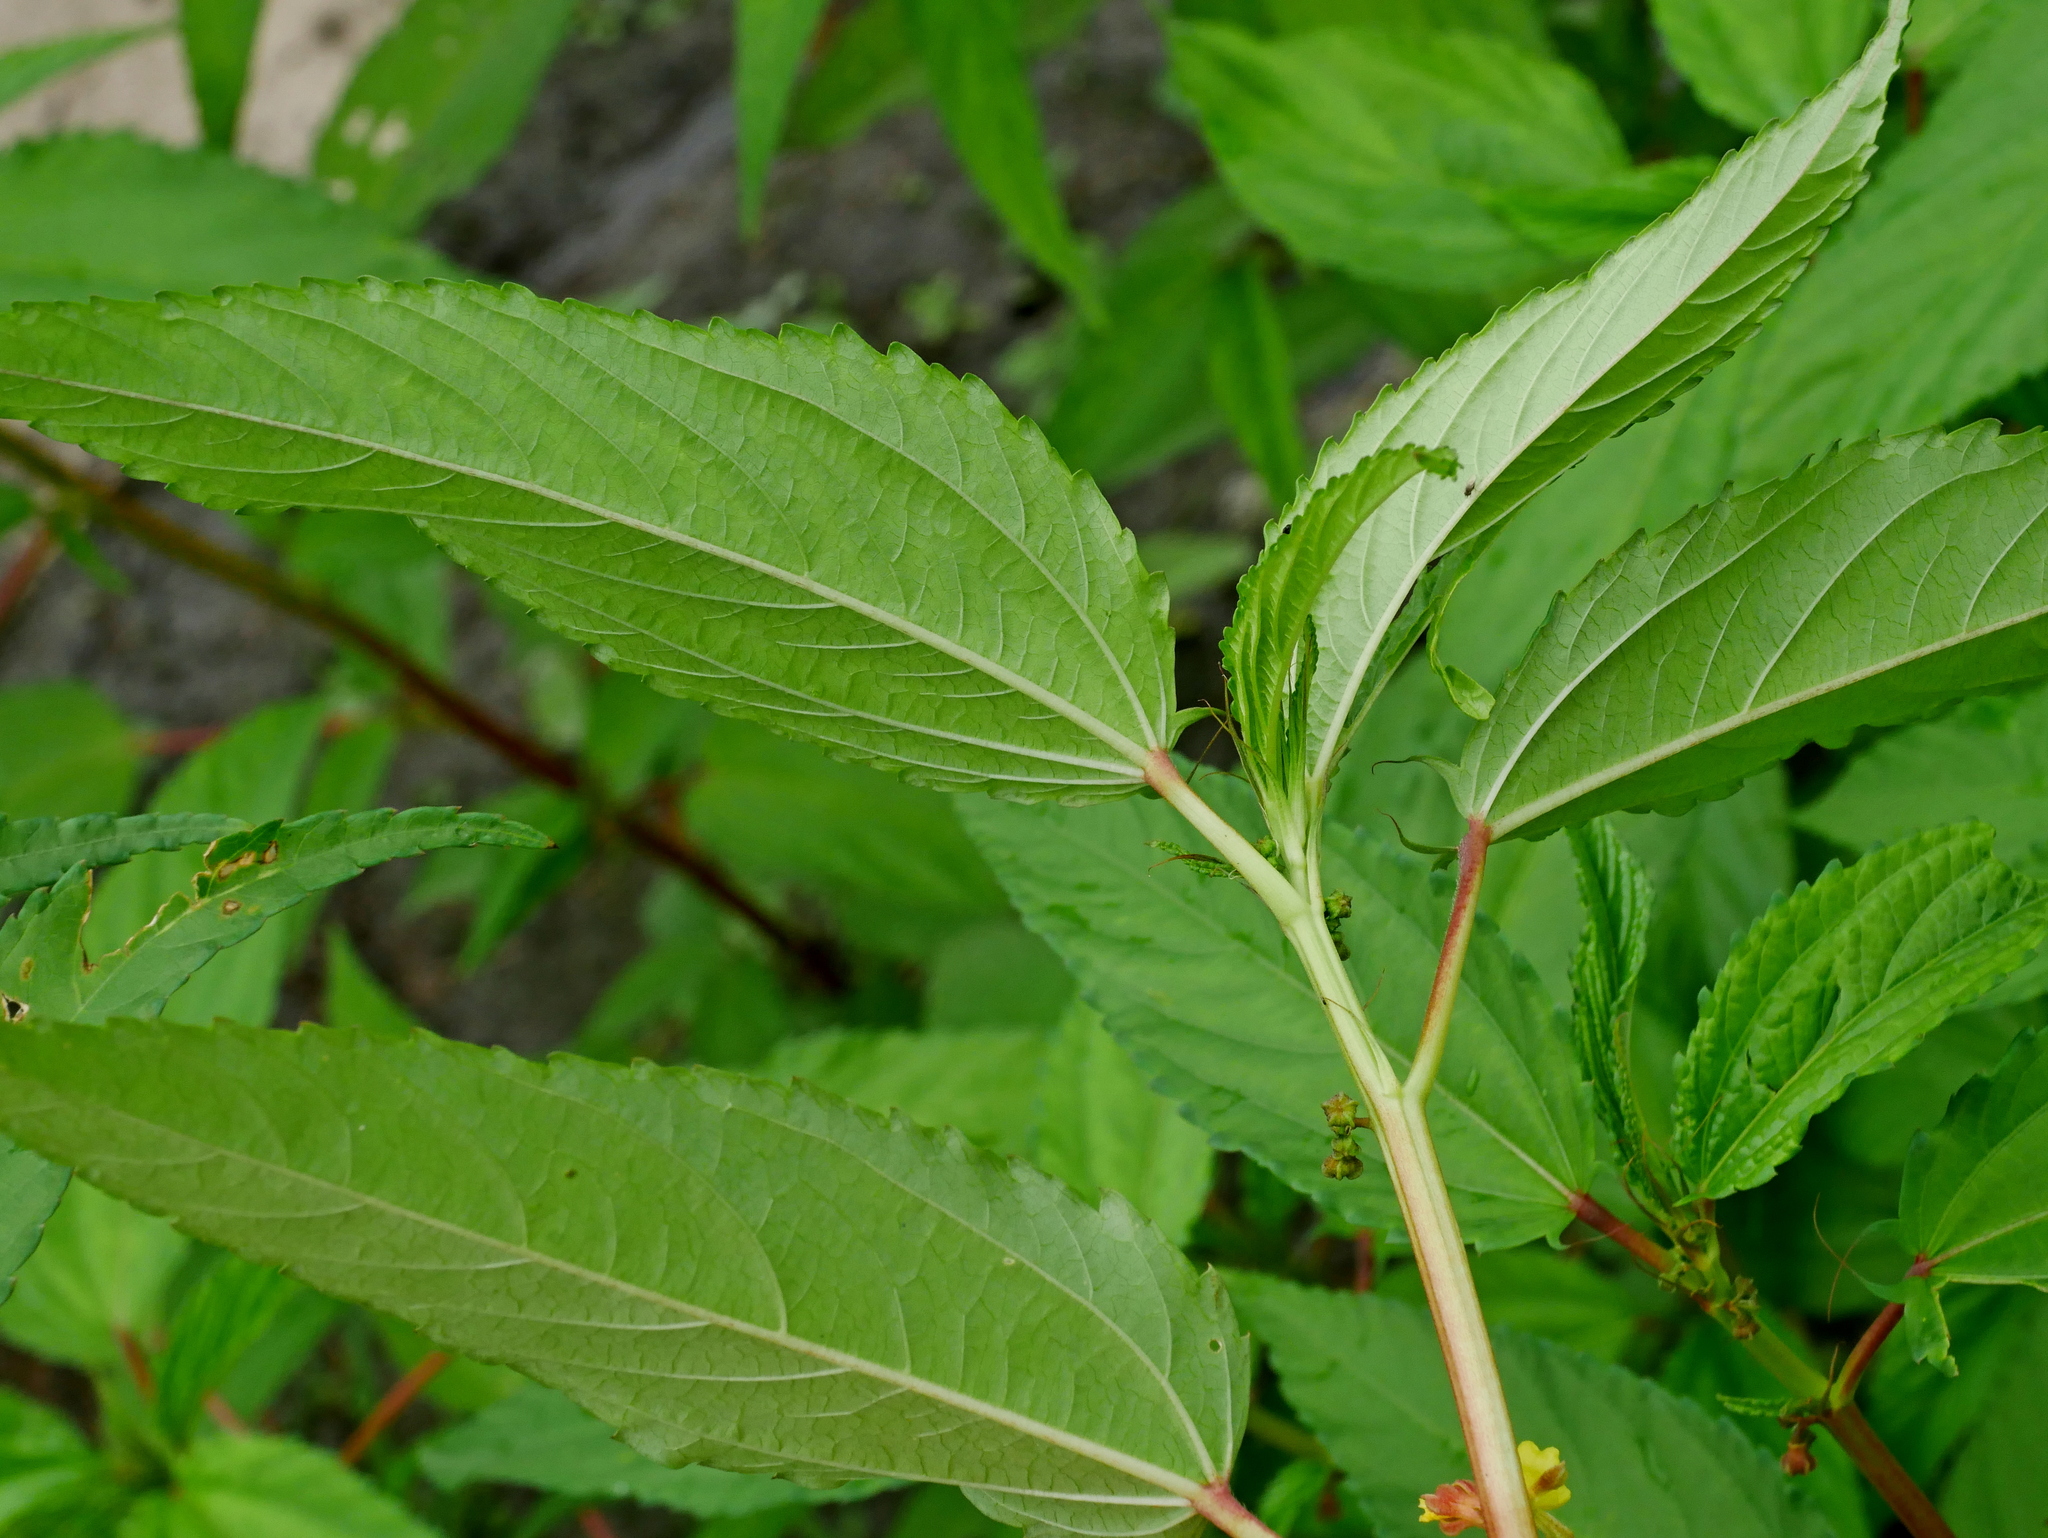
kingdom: Plantae
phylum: Tracheophyta
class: Magnoliopsida
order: Malvales
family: Malvaceae
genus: Corchorus
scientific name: Corchorus capsularis
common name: Jute
